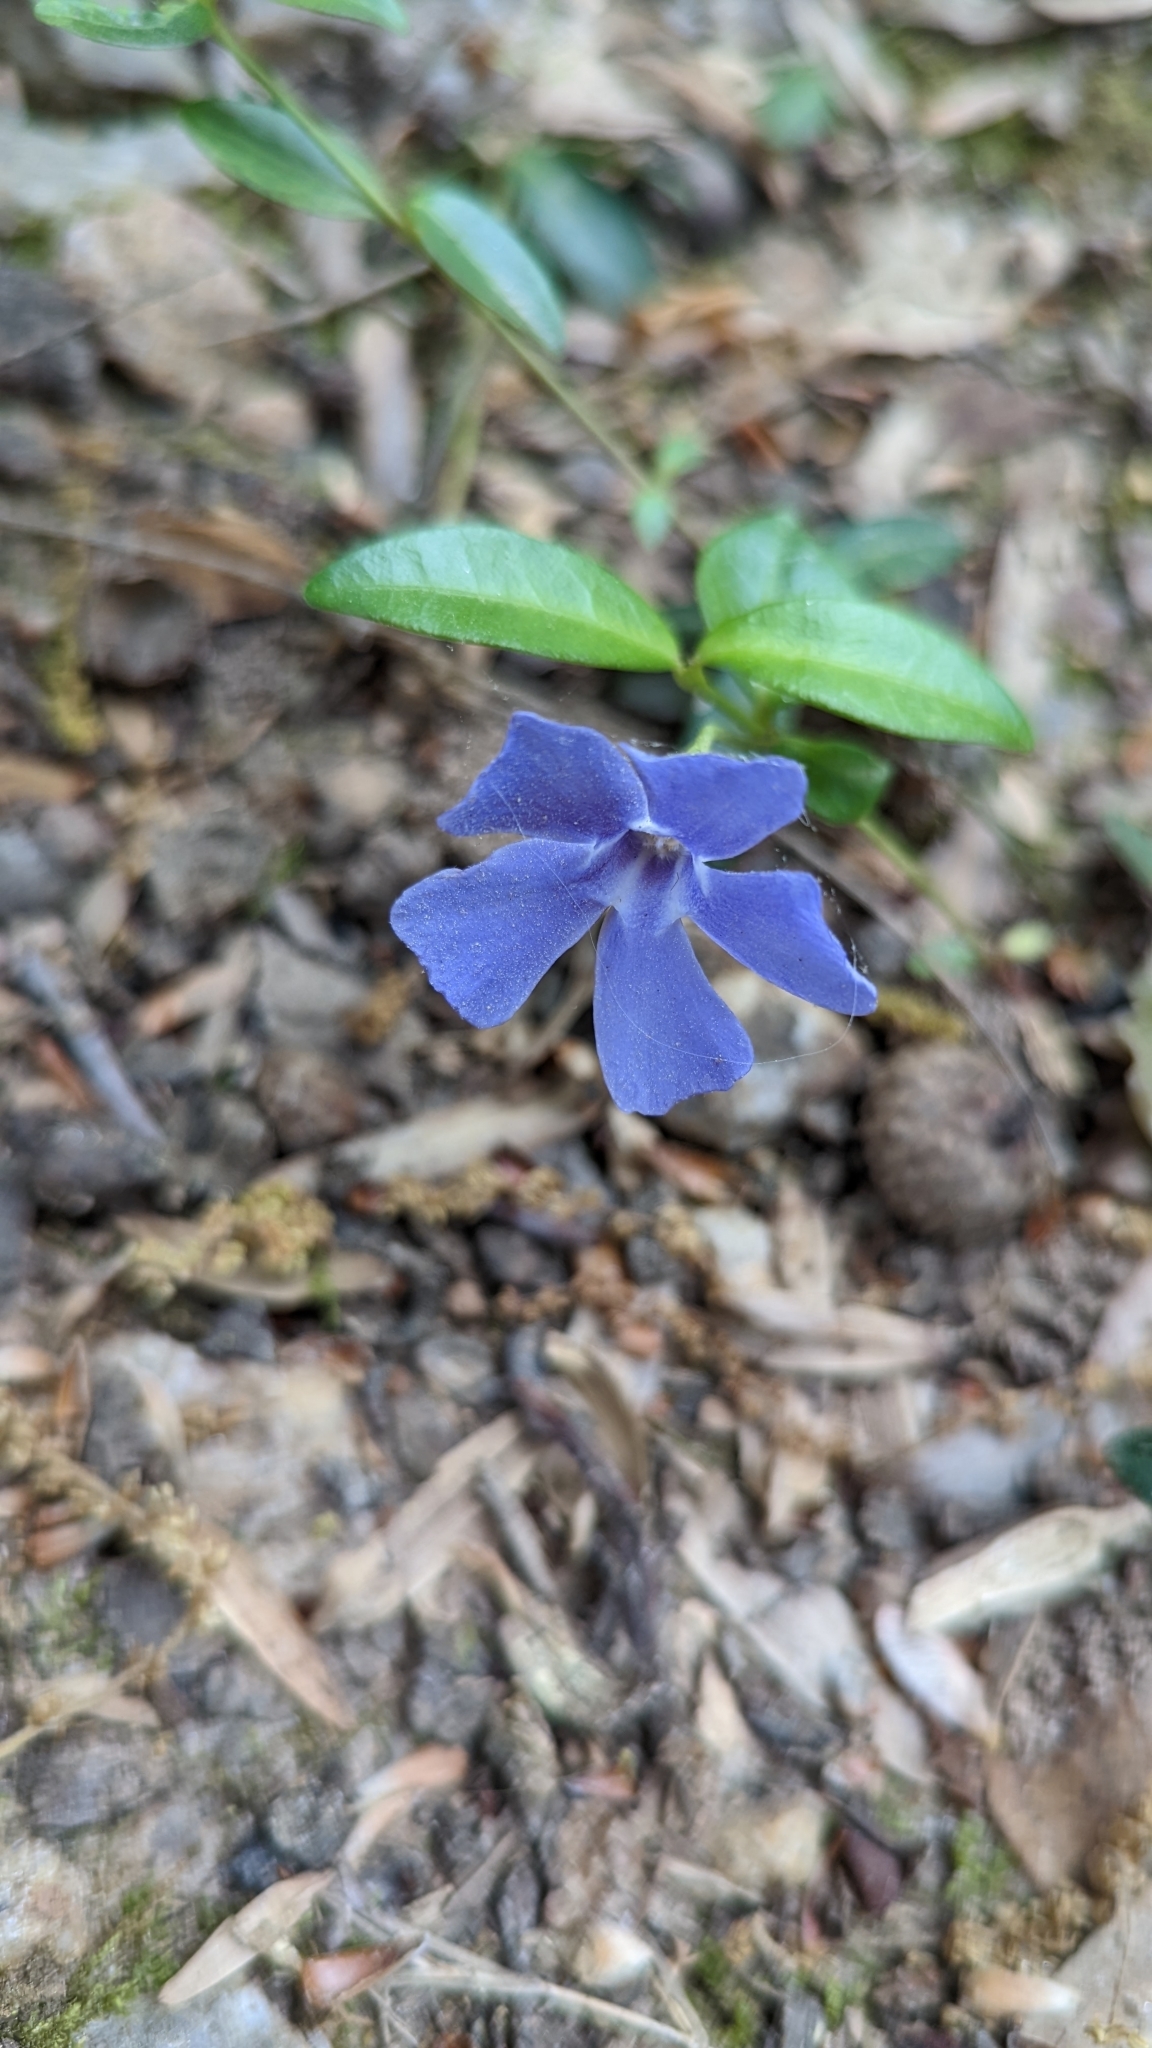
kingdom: Plantae
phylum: Tracheophyta
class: Magnoliopsida
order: Gentianales
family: Apocynaceae
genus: Vinca
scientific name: Vinca minor
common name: Lesser periwinkle
